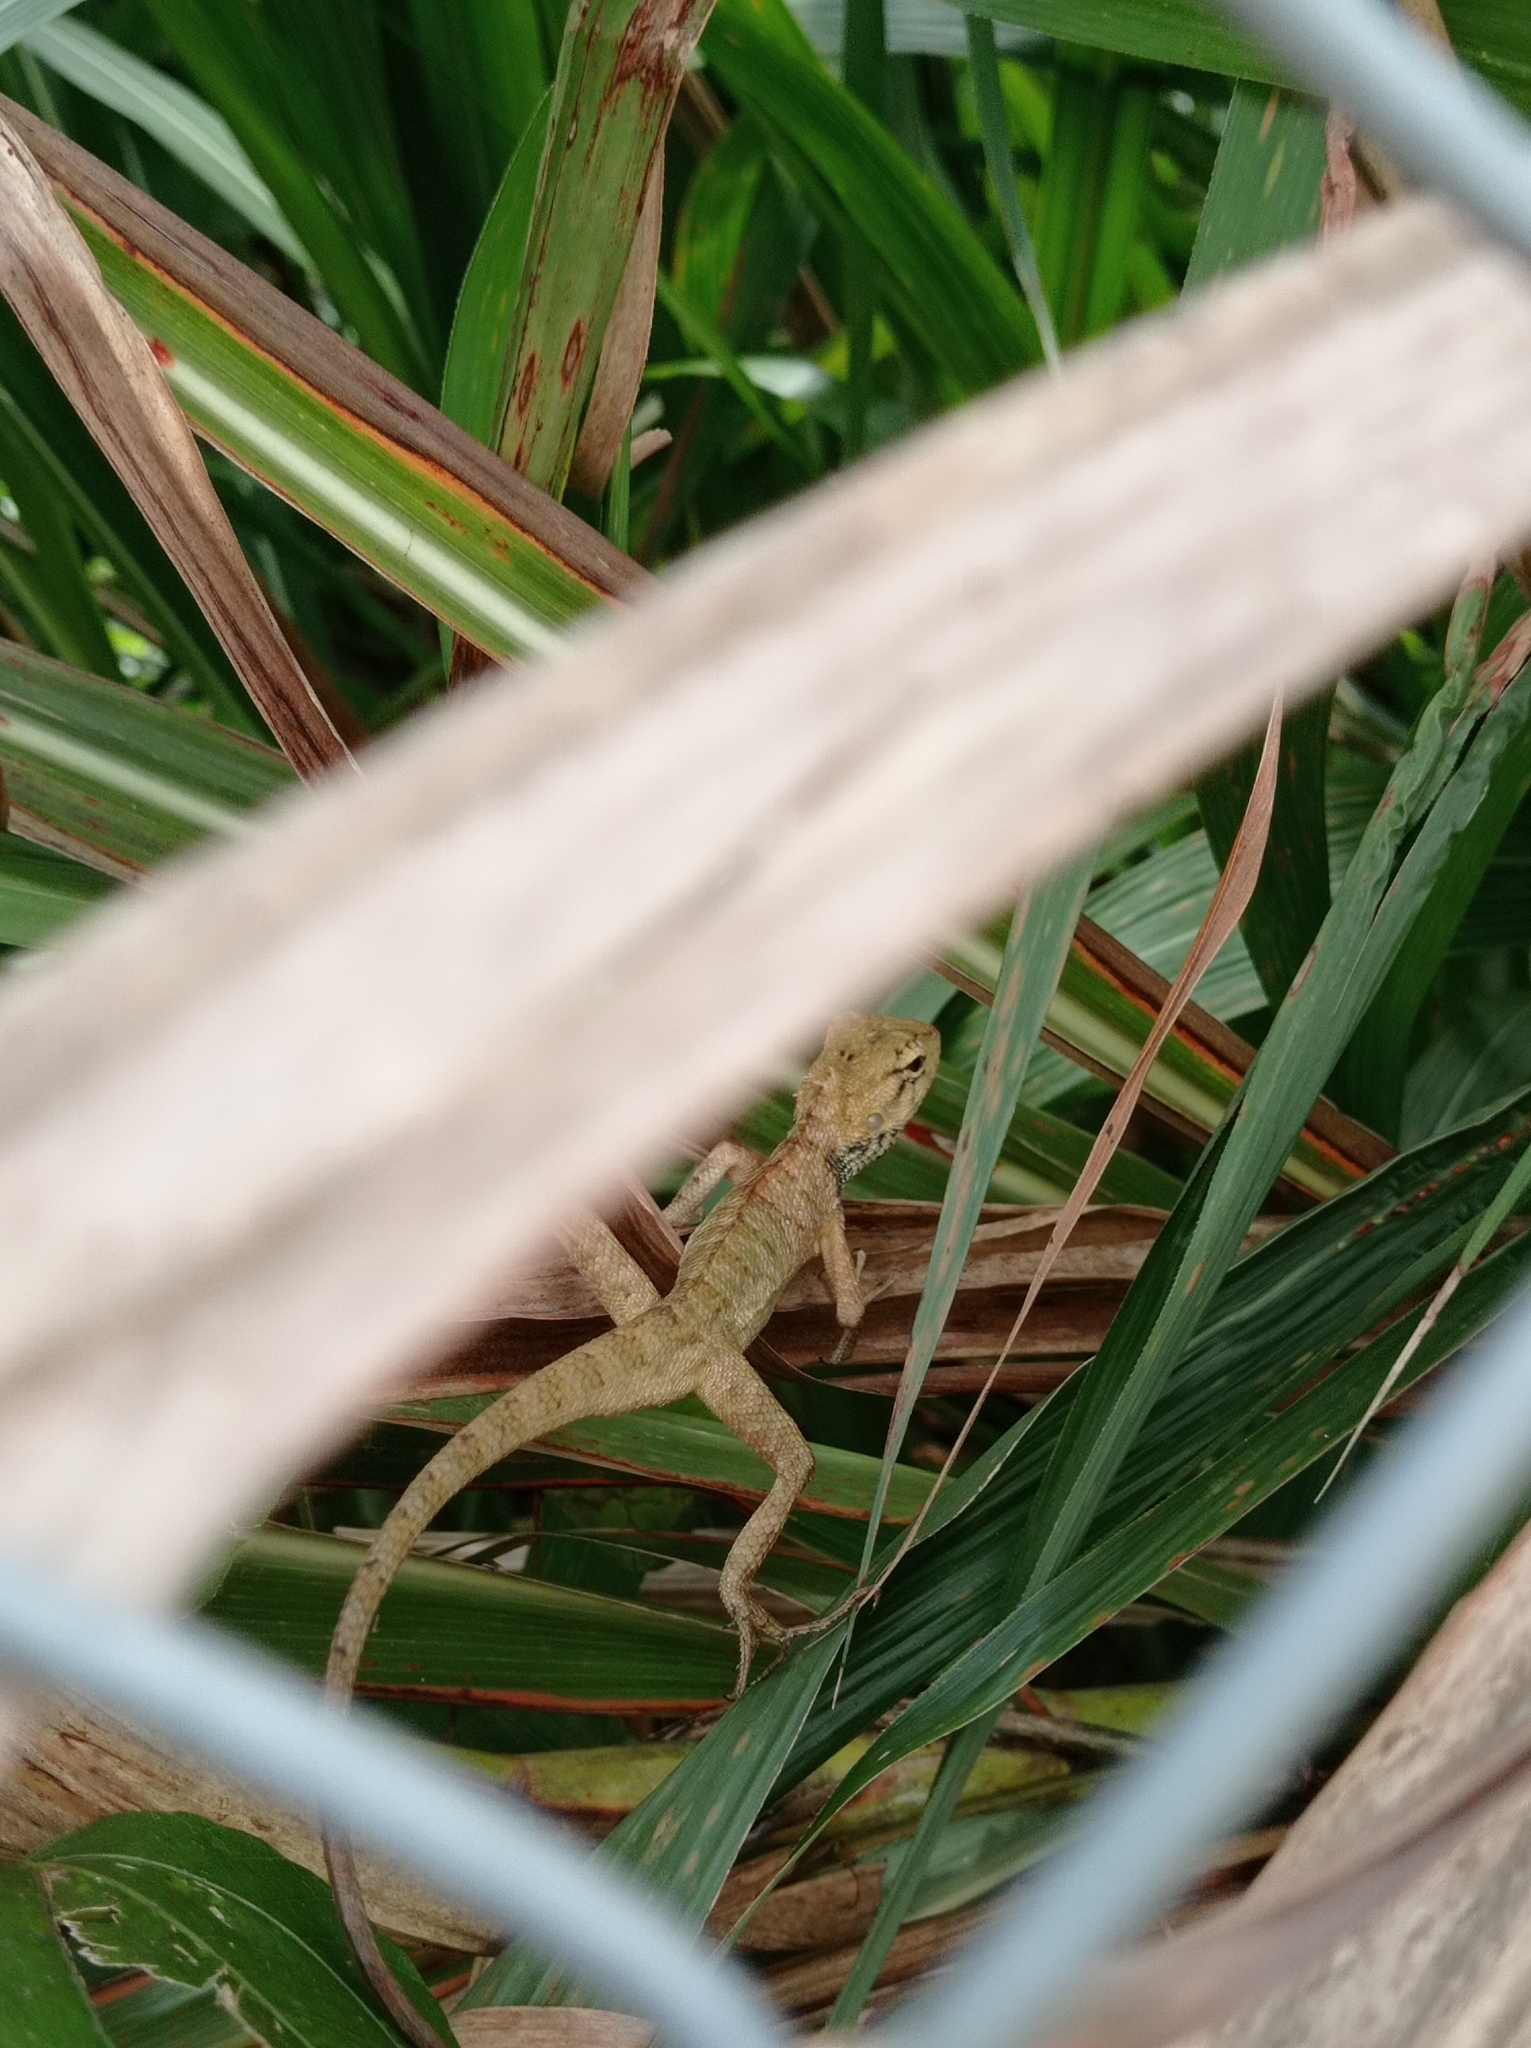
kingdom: Animalia
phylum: Chordata
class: Squamata
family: Agamidae
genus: Calotes
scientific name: Calotes versicolor
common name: Oriental garden lizard
